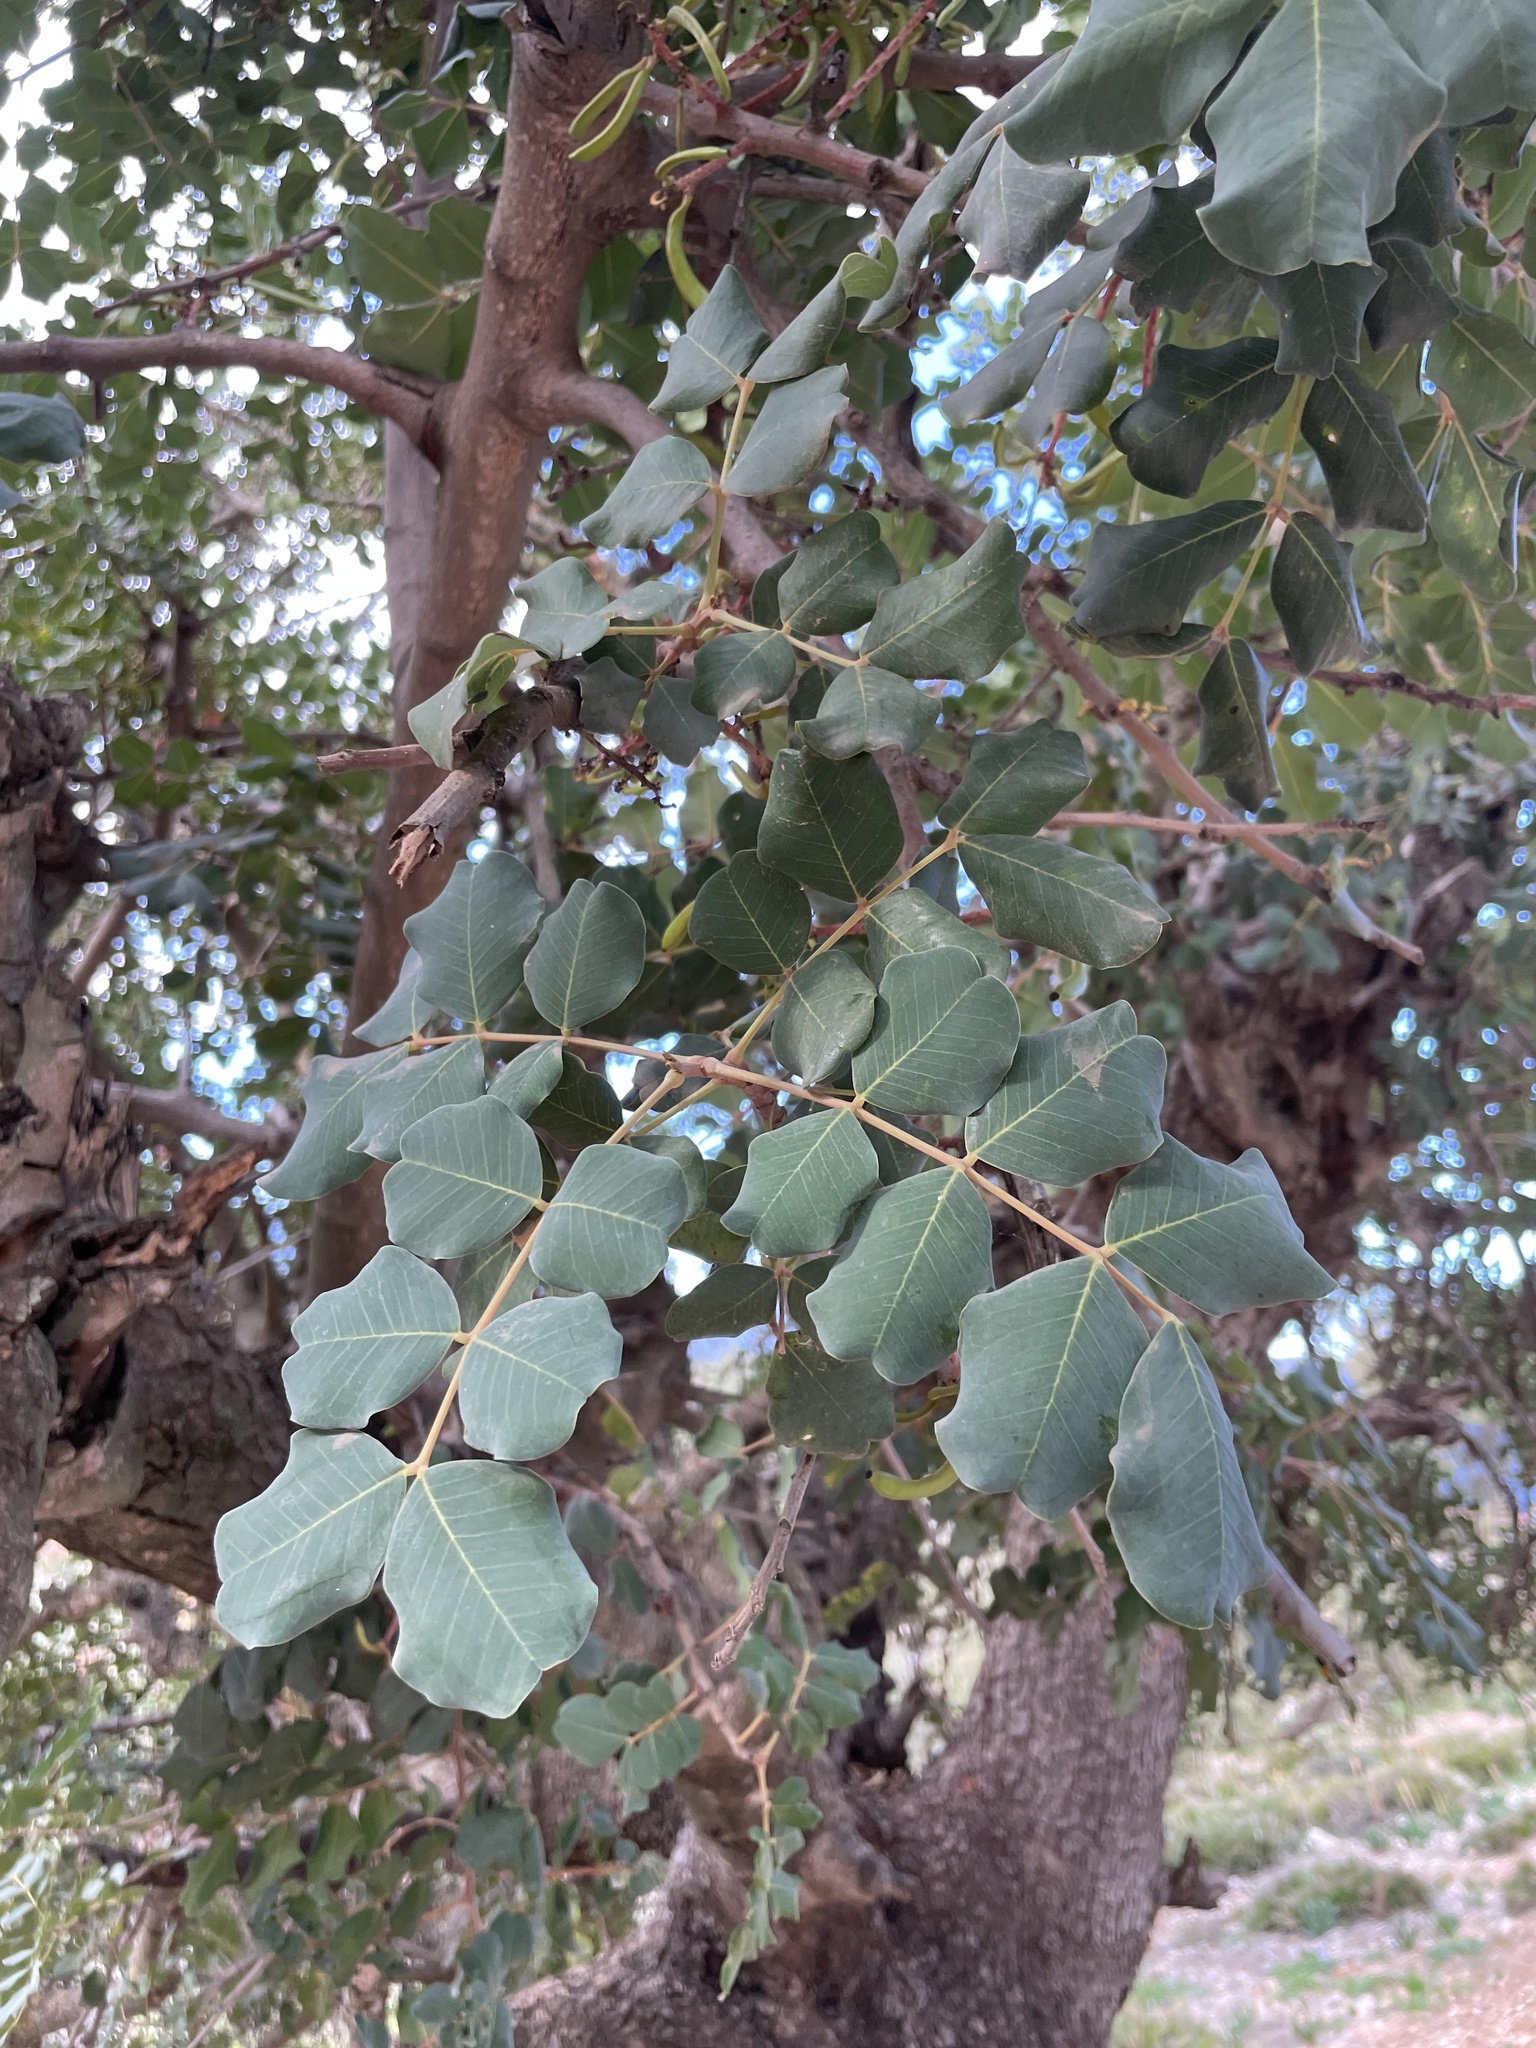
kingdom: Plantae
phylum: Tracheophyta
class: Magnoliopsida
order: Fabales
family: Fabaceae
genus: Ceratonia
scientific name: Ceratonia siliqua
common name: Carob
